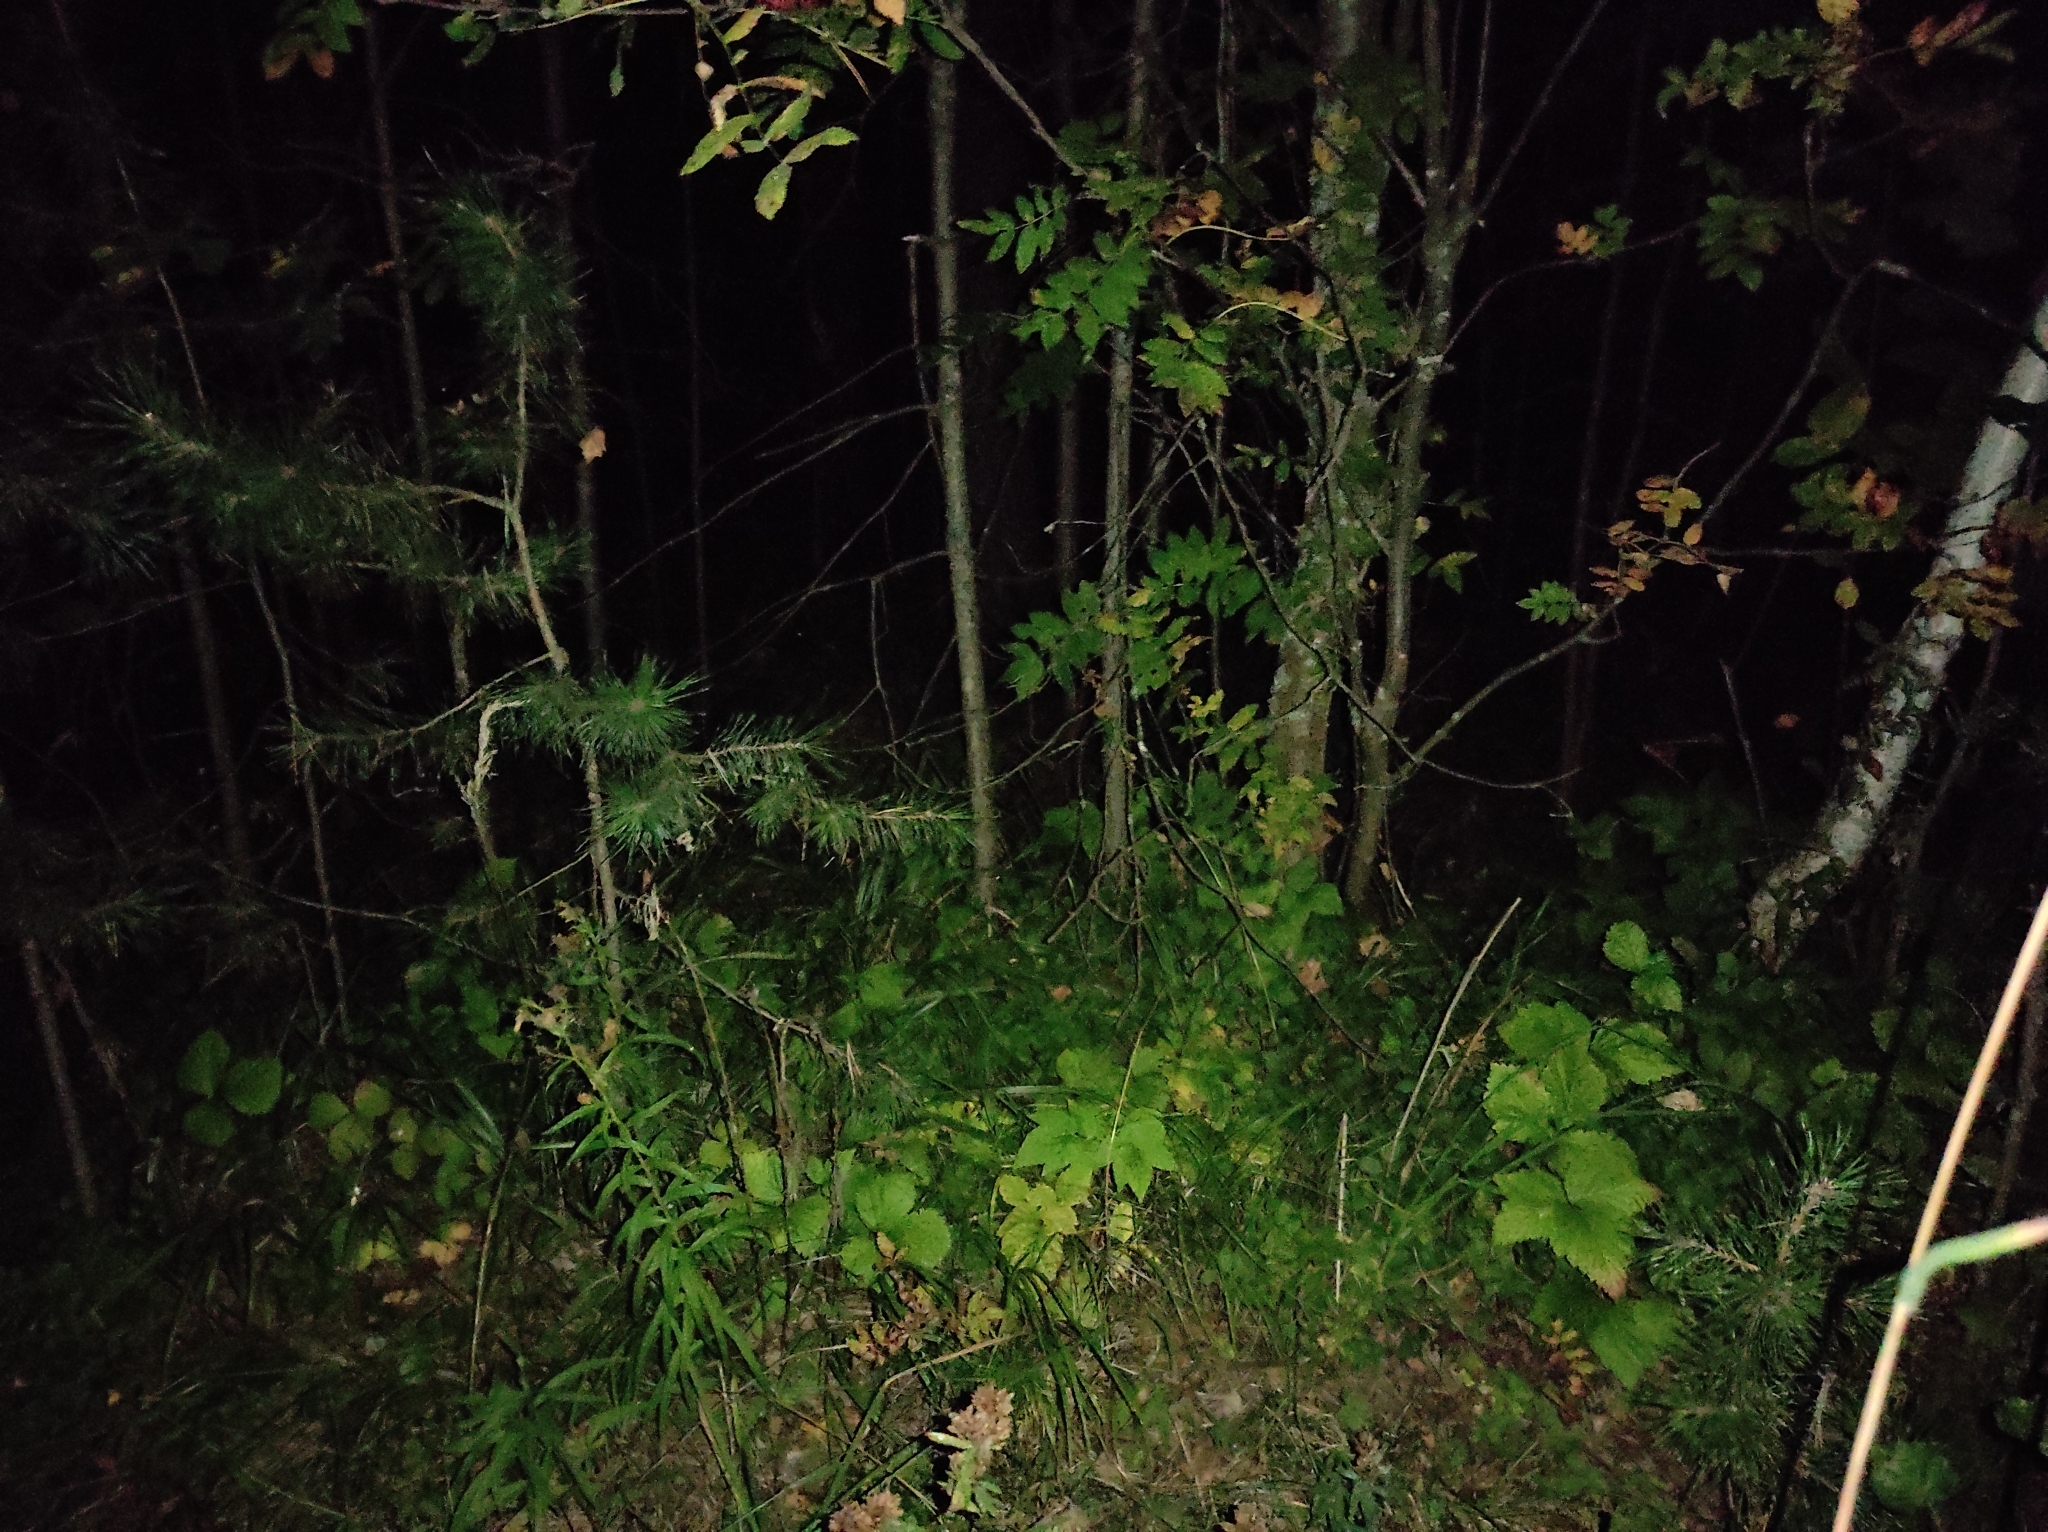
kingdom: Plantae
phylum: Tracheophyta
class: Pinopsida
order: Pinales
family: Pinaceae
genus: Pinus
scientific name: Pinus sylvestris
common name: Scots pine
